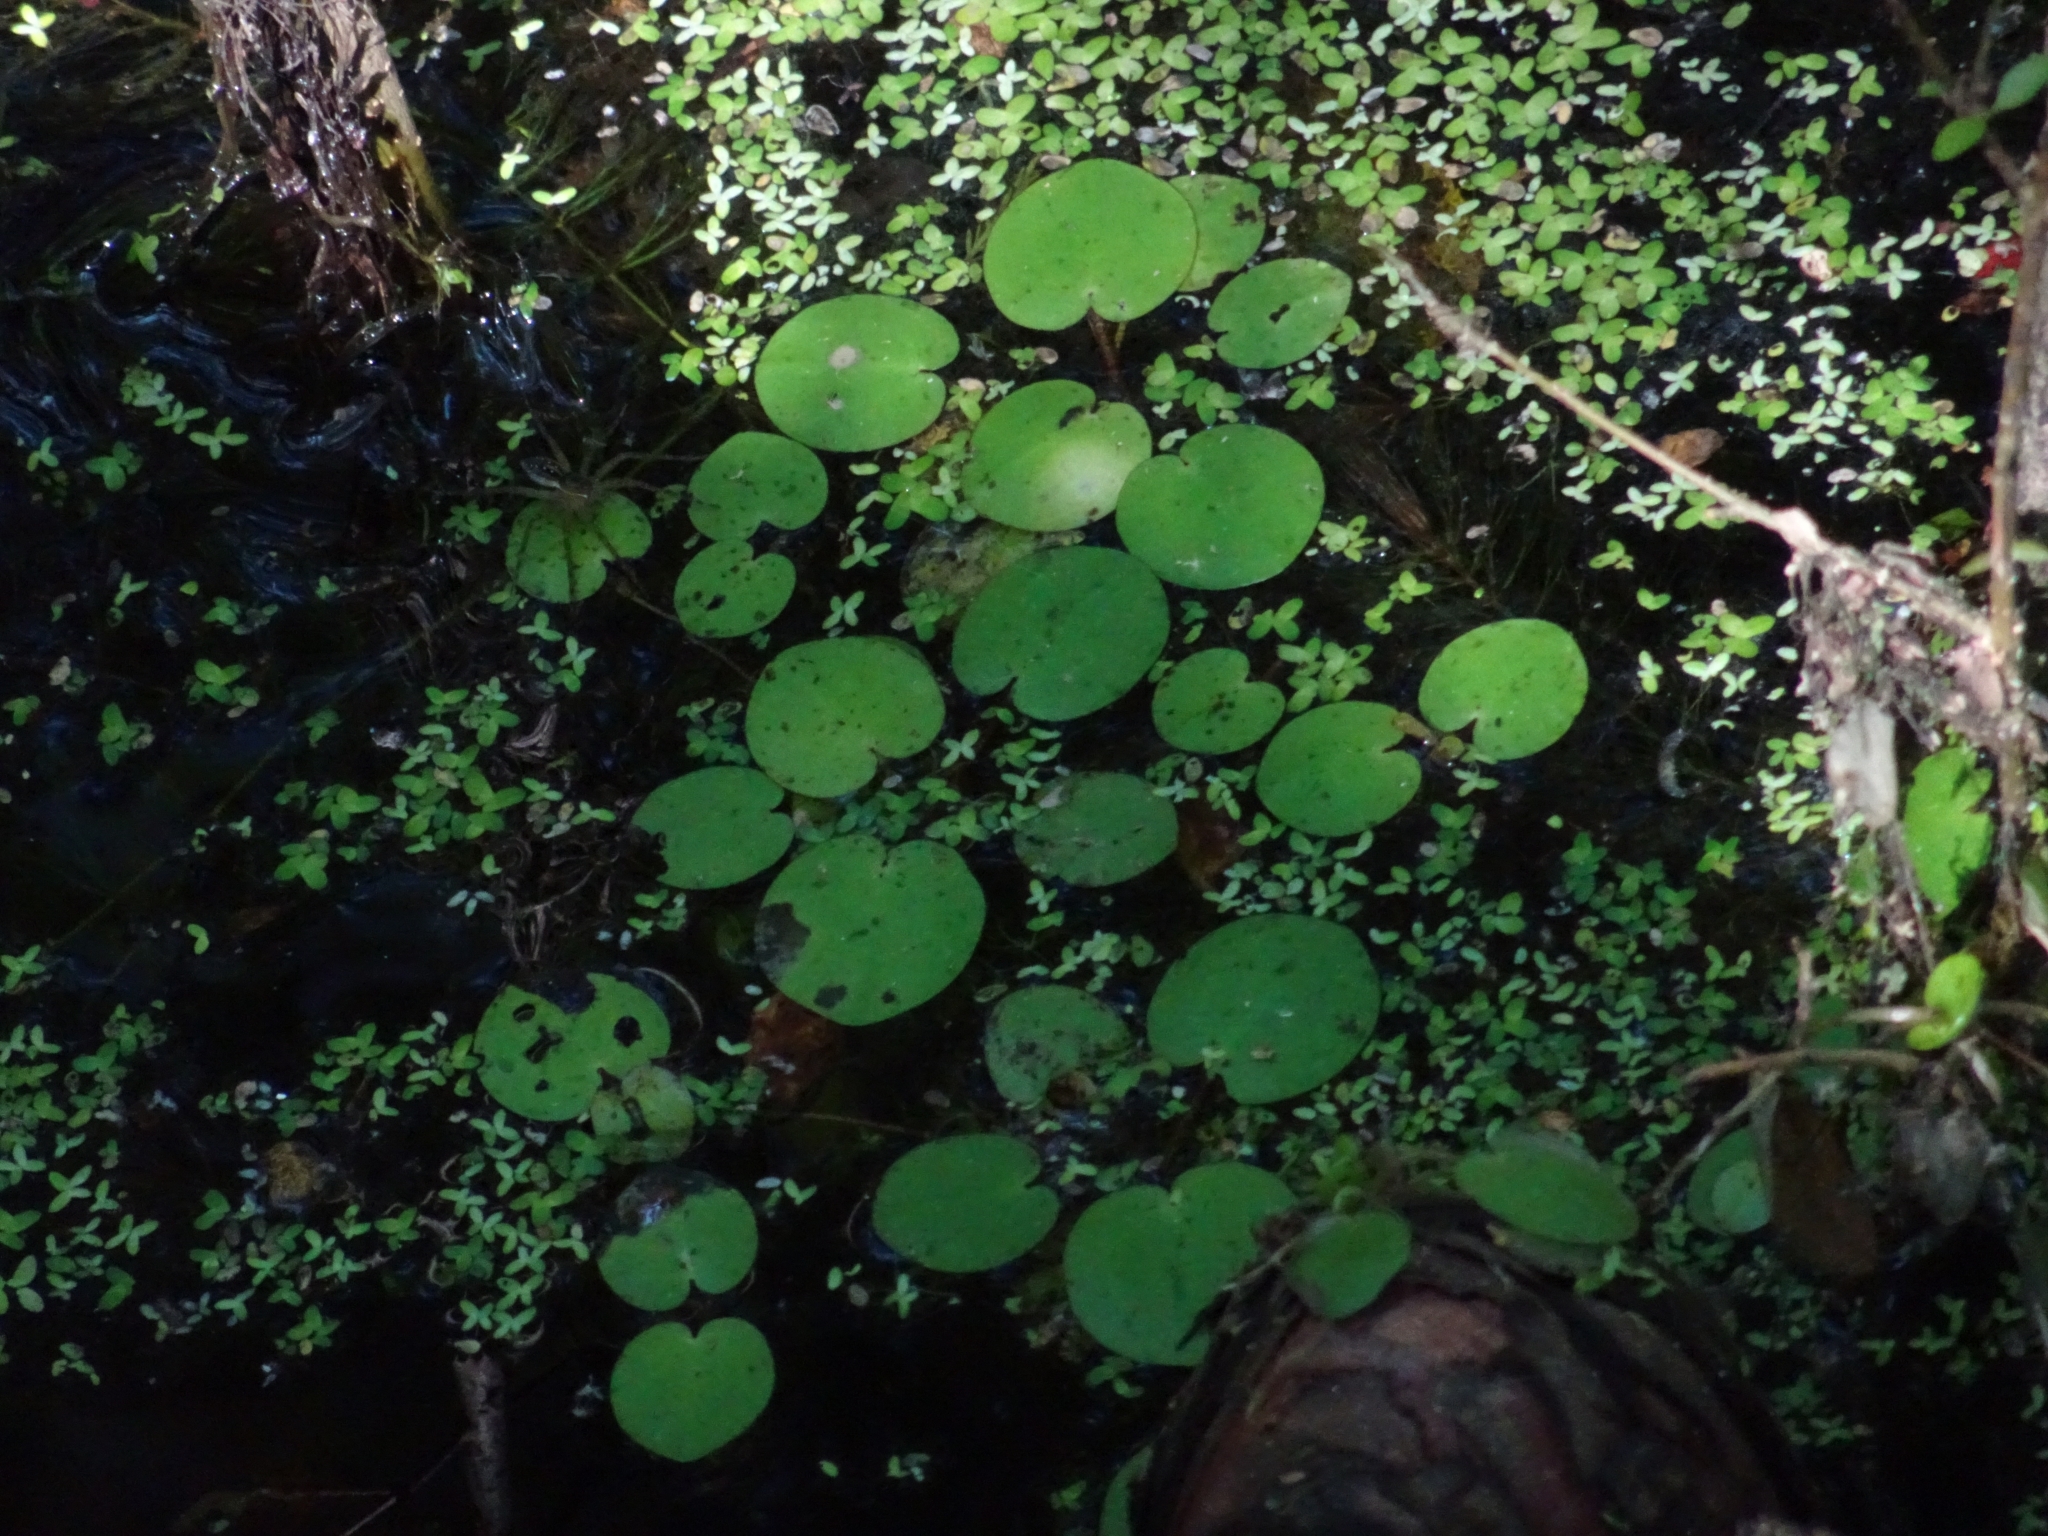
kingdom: Plantae
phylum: Tracheophyta
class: Liliopsida
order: Alismatales
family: Hydrocharitaceae
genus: Hydrocharis
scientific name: Hydrocharis spongia
